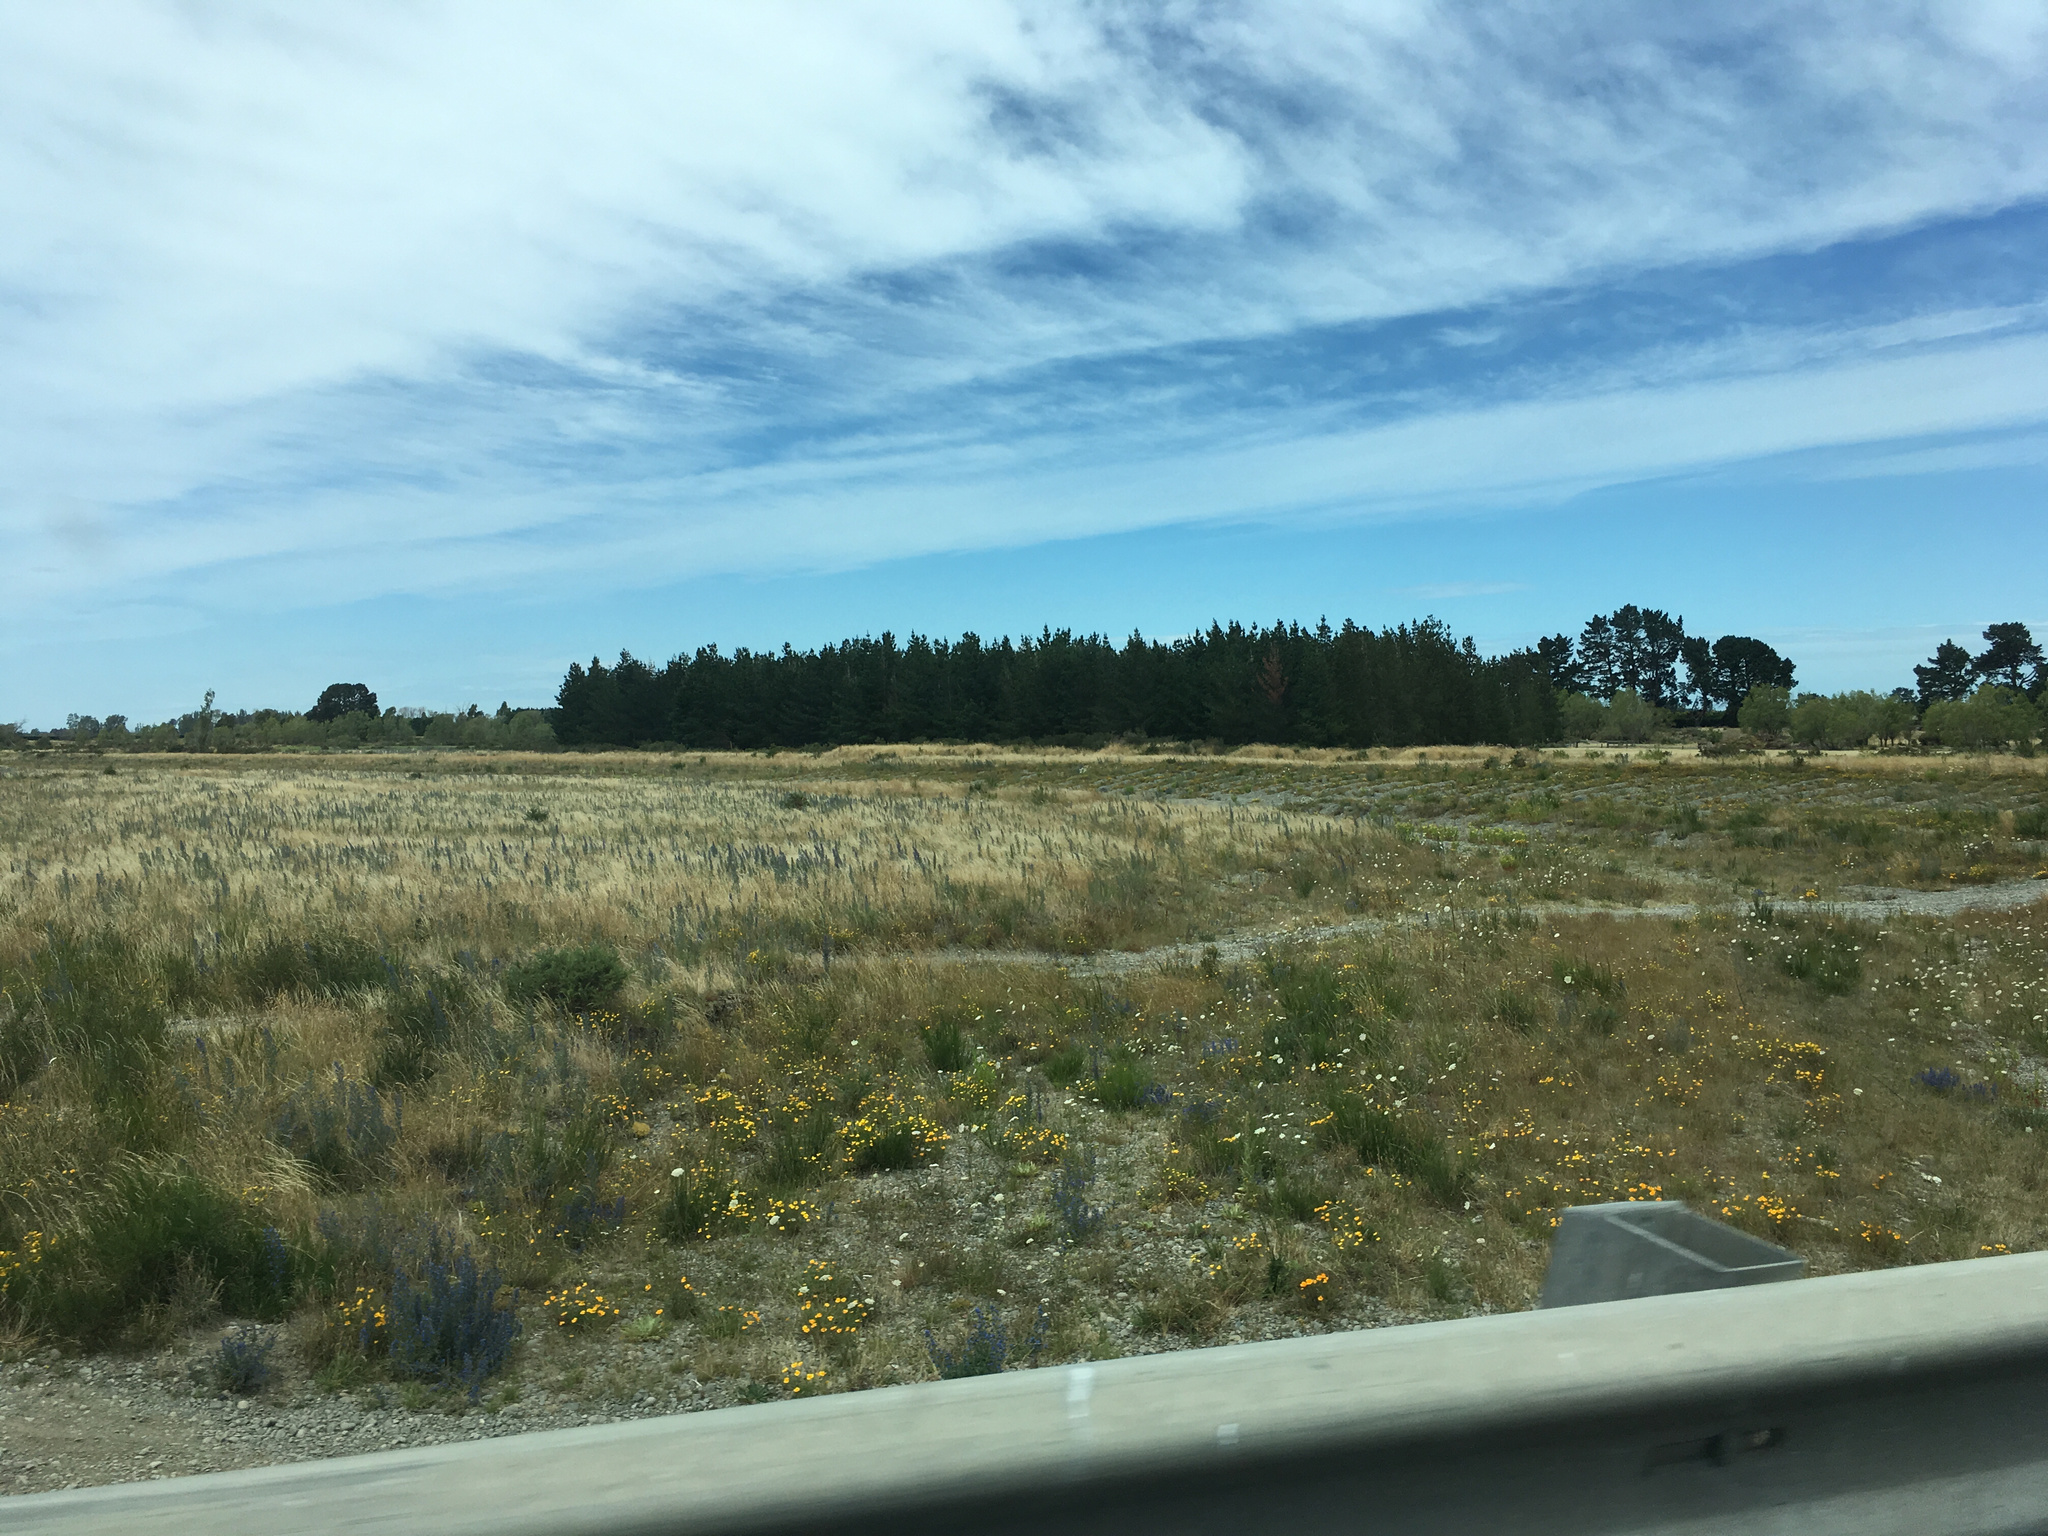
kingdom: Plantae
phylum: Tracheophyta
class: Magnoliopsida
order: Ranunculales
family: Papaveraceae
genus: Eschscholzia
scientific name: Eschscholzia californica
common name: California poppy
